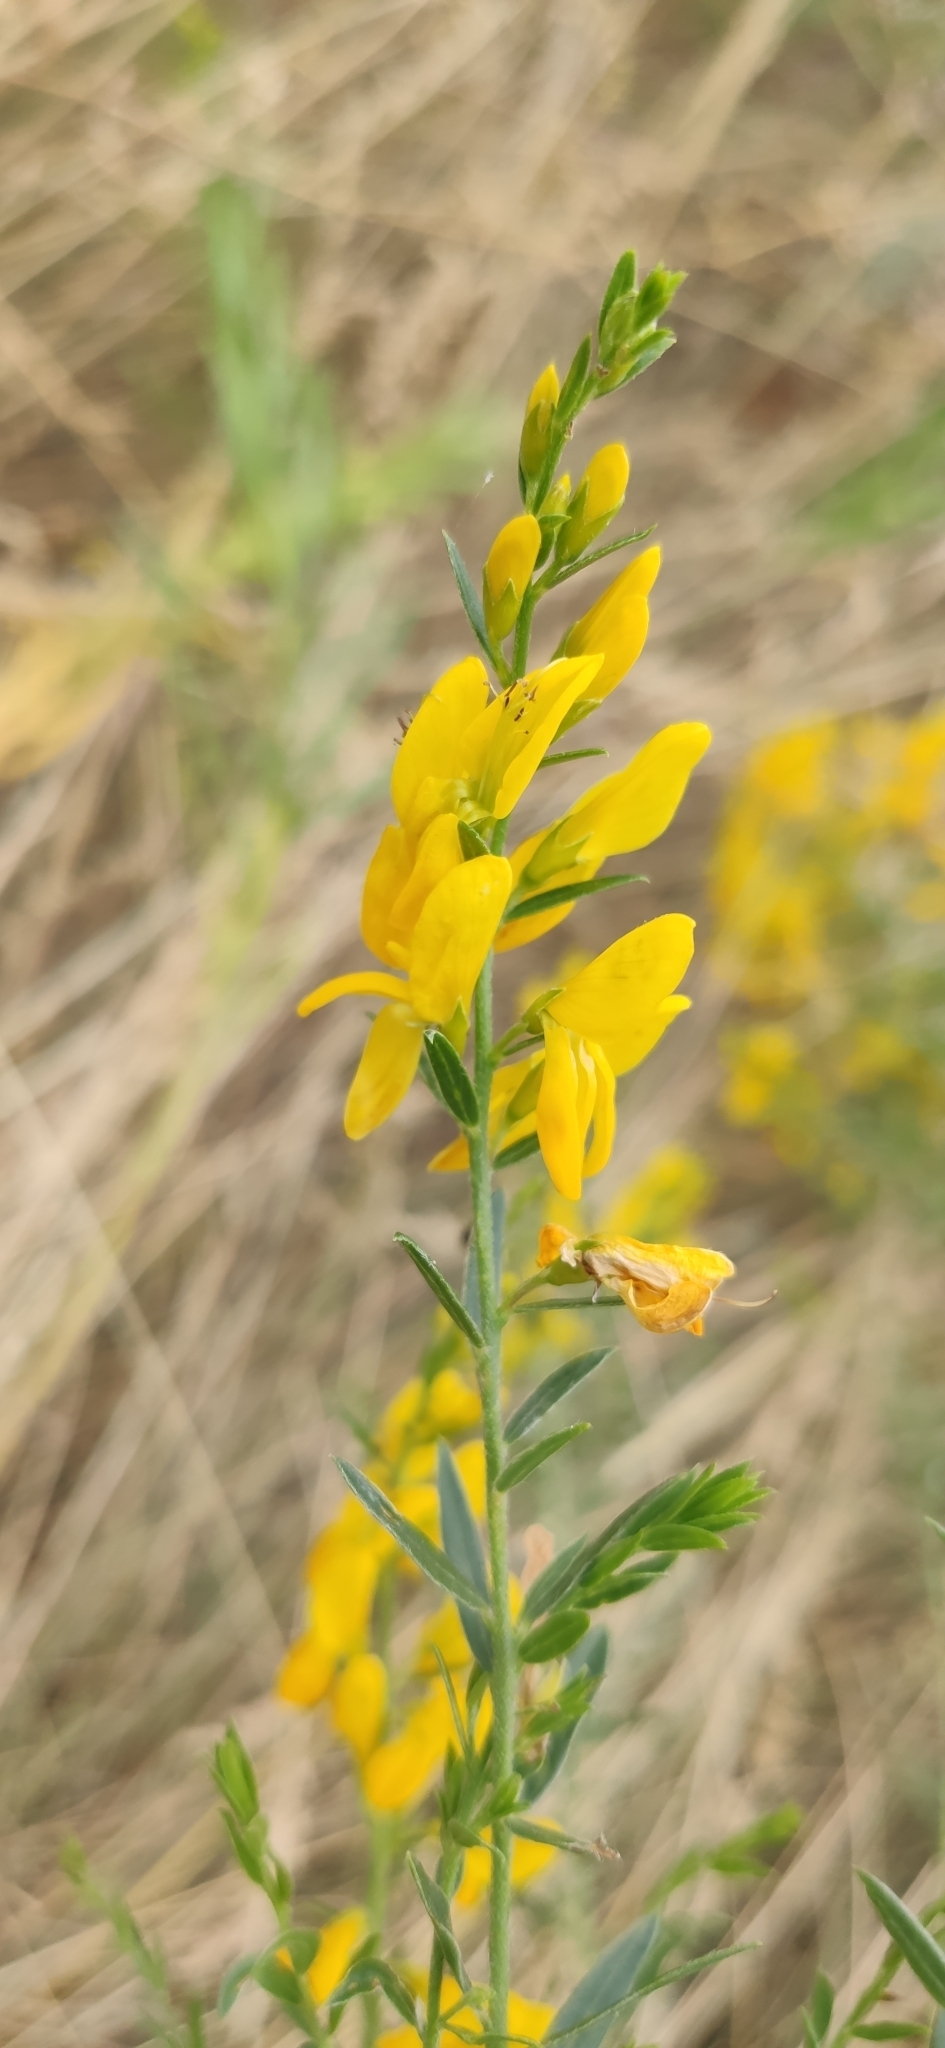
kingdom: Plantae
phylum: Tracheophyta
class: Magnoliopsida
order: Fabales
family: Fabaceae
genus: Genista
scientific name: Genista tinctoria
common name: Dyer's greenweed
